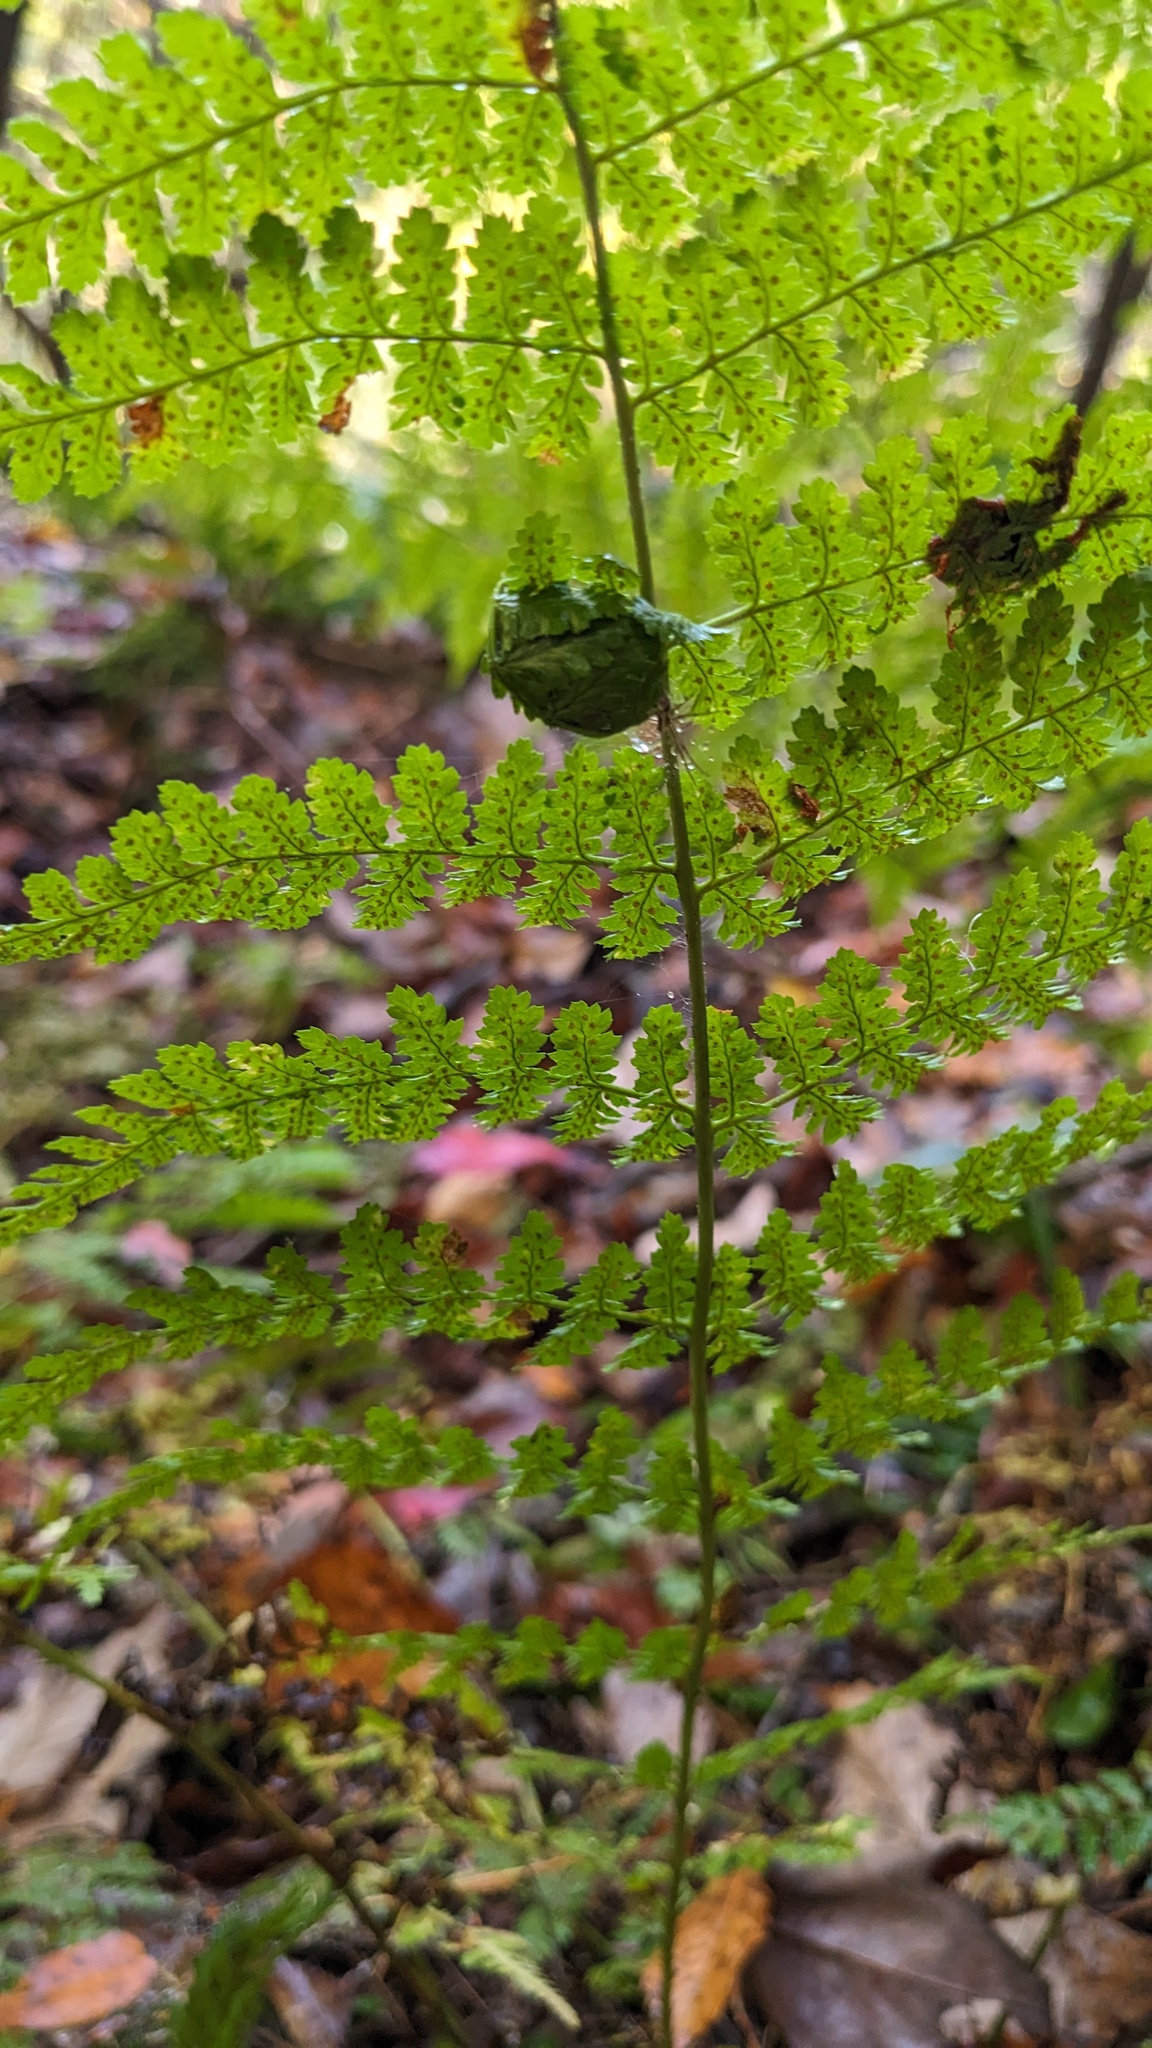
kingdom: Plantae
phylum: Tracheophyta
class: Polypodiopsida
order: Polypodiales
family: Dryopteridaceae
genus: Dryopteris
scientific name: Dryopteris intermedia
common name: Evergreen wood fern
